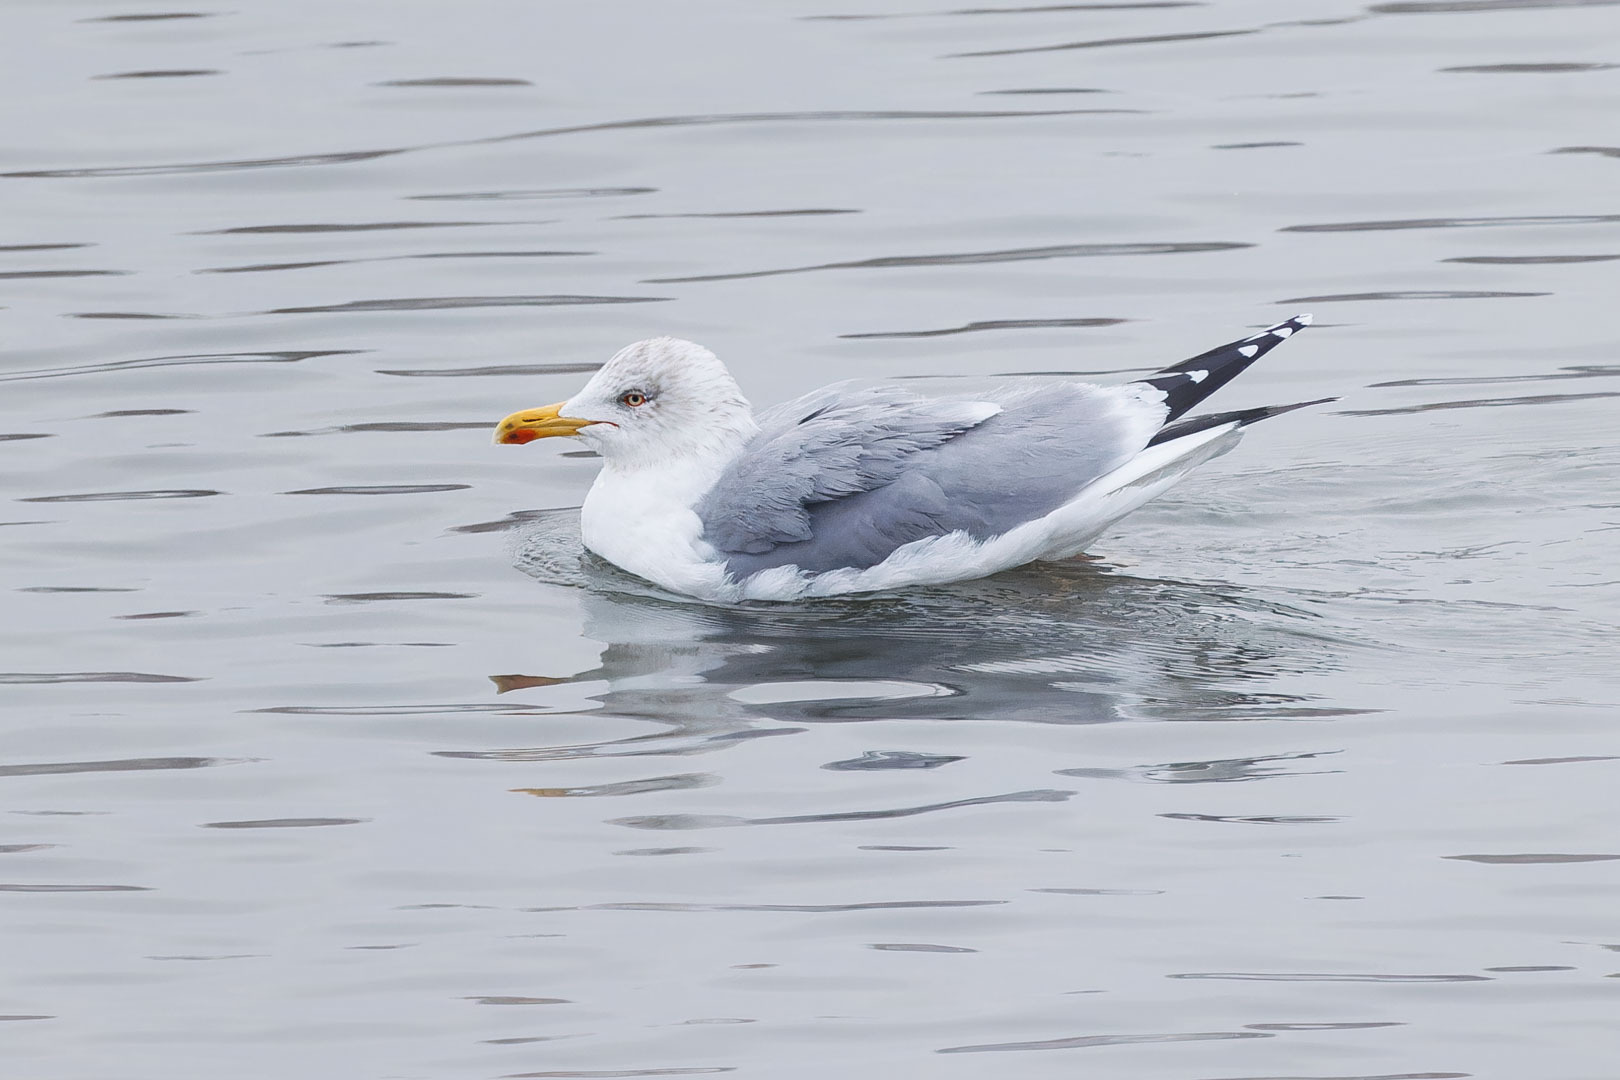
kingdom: Animalia
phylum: Chordata
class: Aves
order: Charadriiformes
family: Laridae
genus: Larus
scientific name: Larus argentatus
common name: Herring gull
